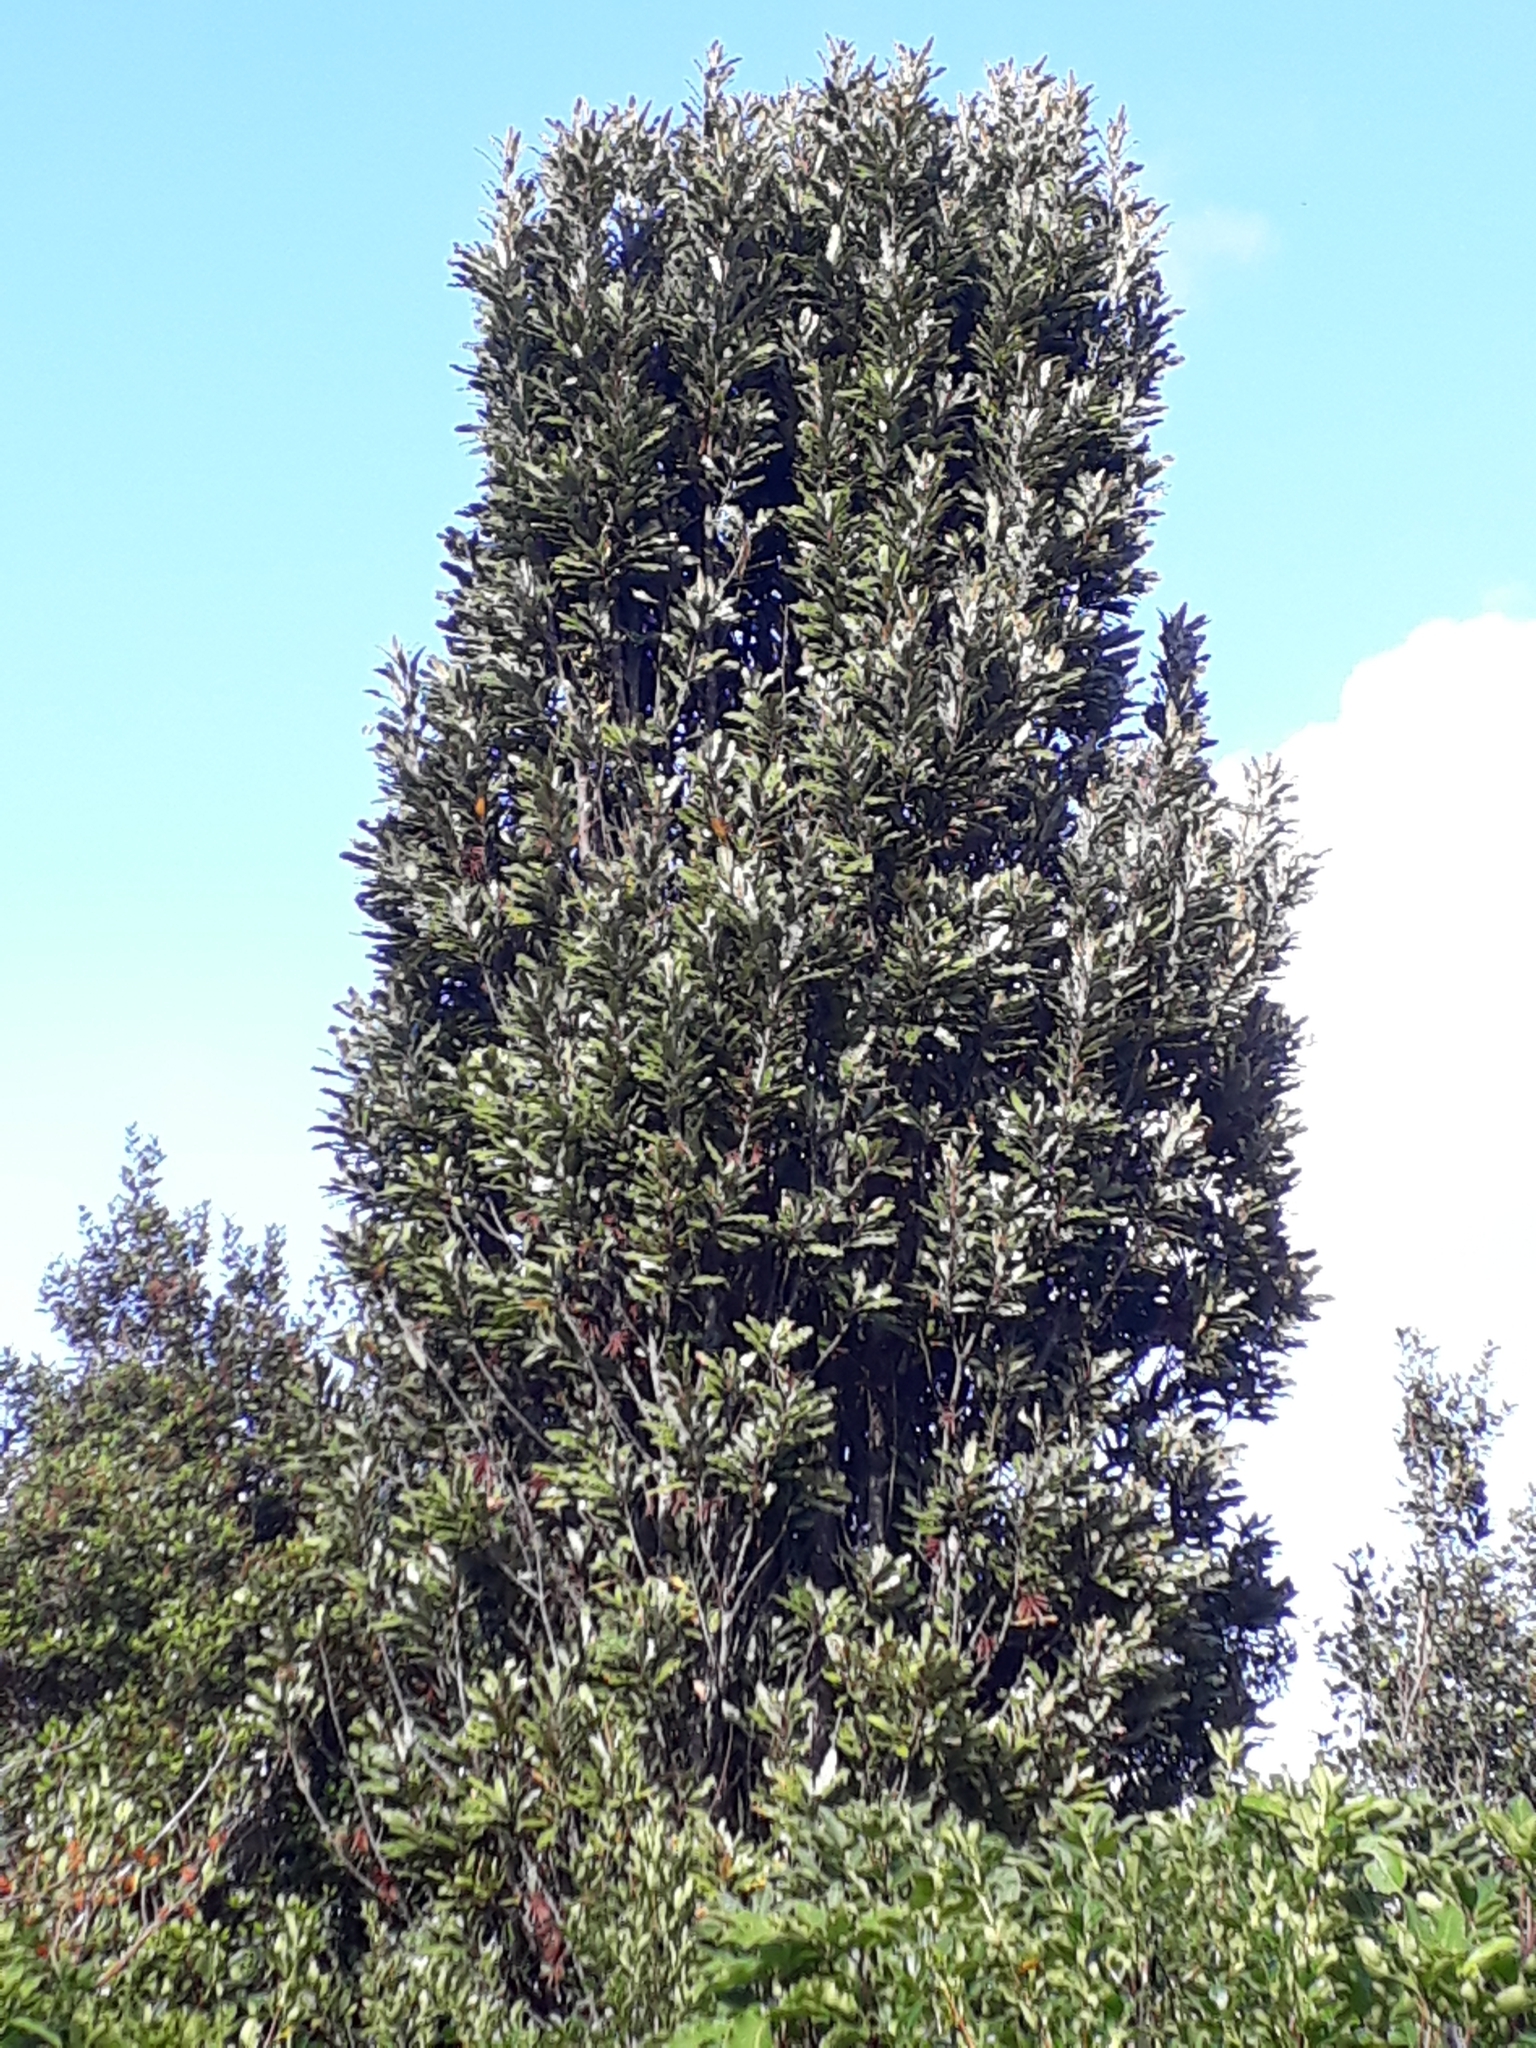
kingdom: Plantae
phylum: Tracheophyta
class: Magnoliopsida
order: Proteales
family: Proteaceae
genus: Knightia
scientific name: Knightia excelsa
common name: New zealand-honeysuckle
